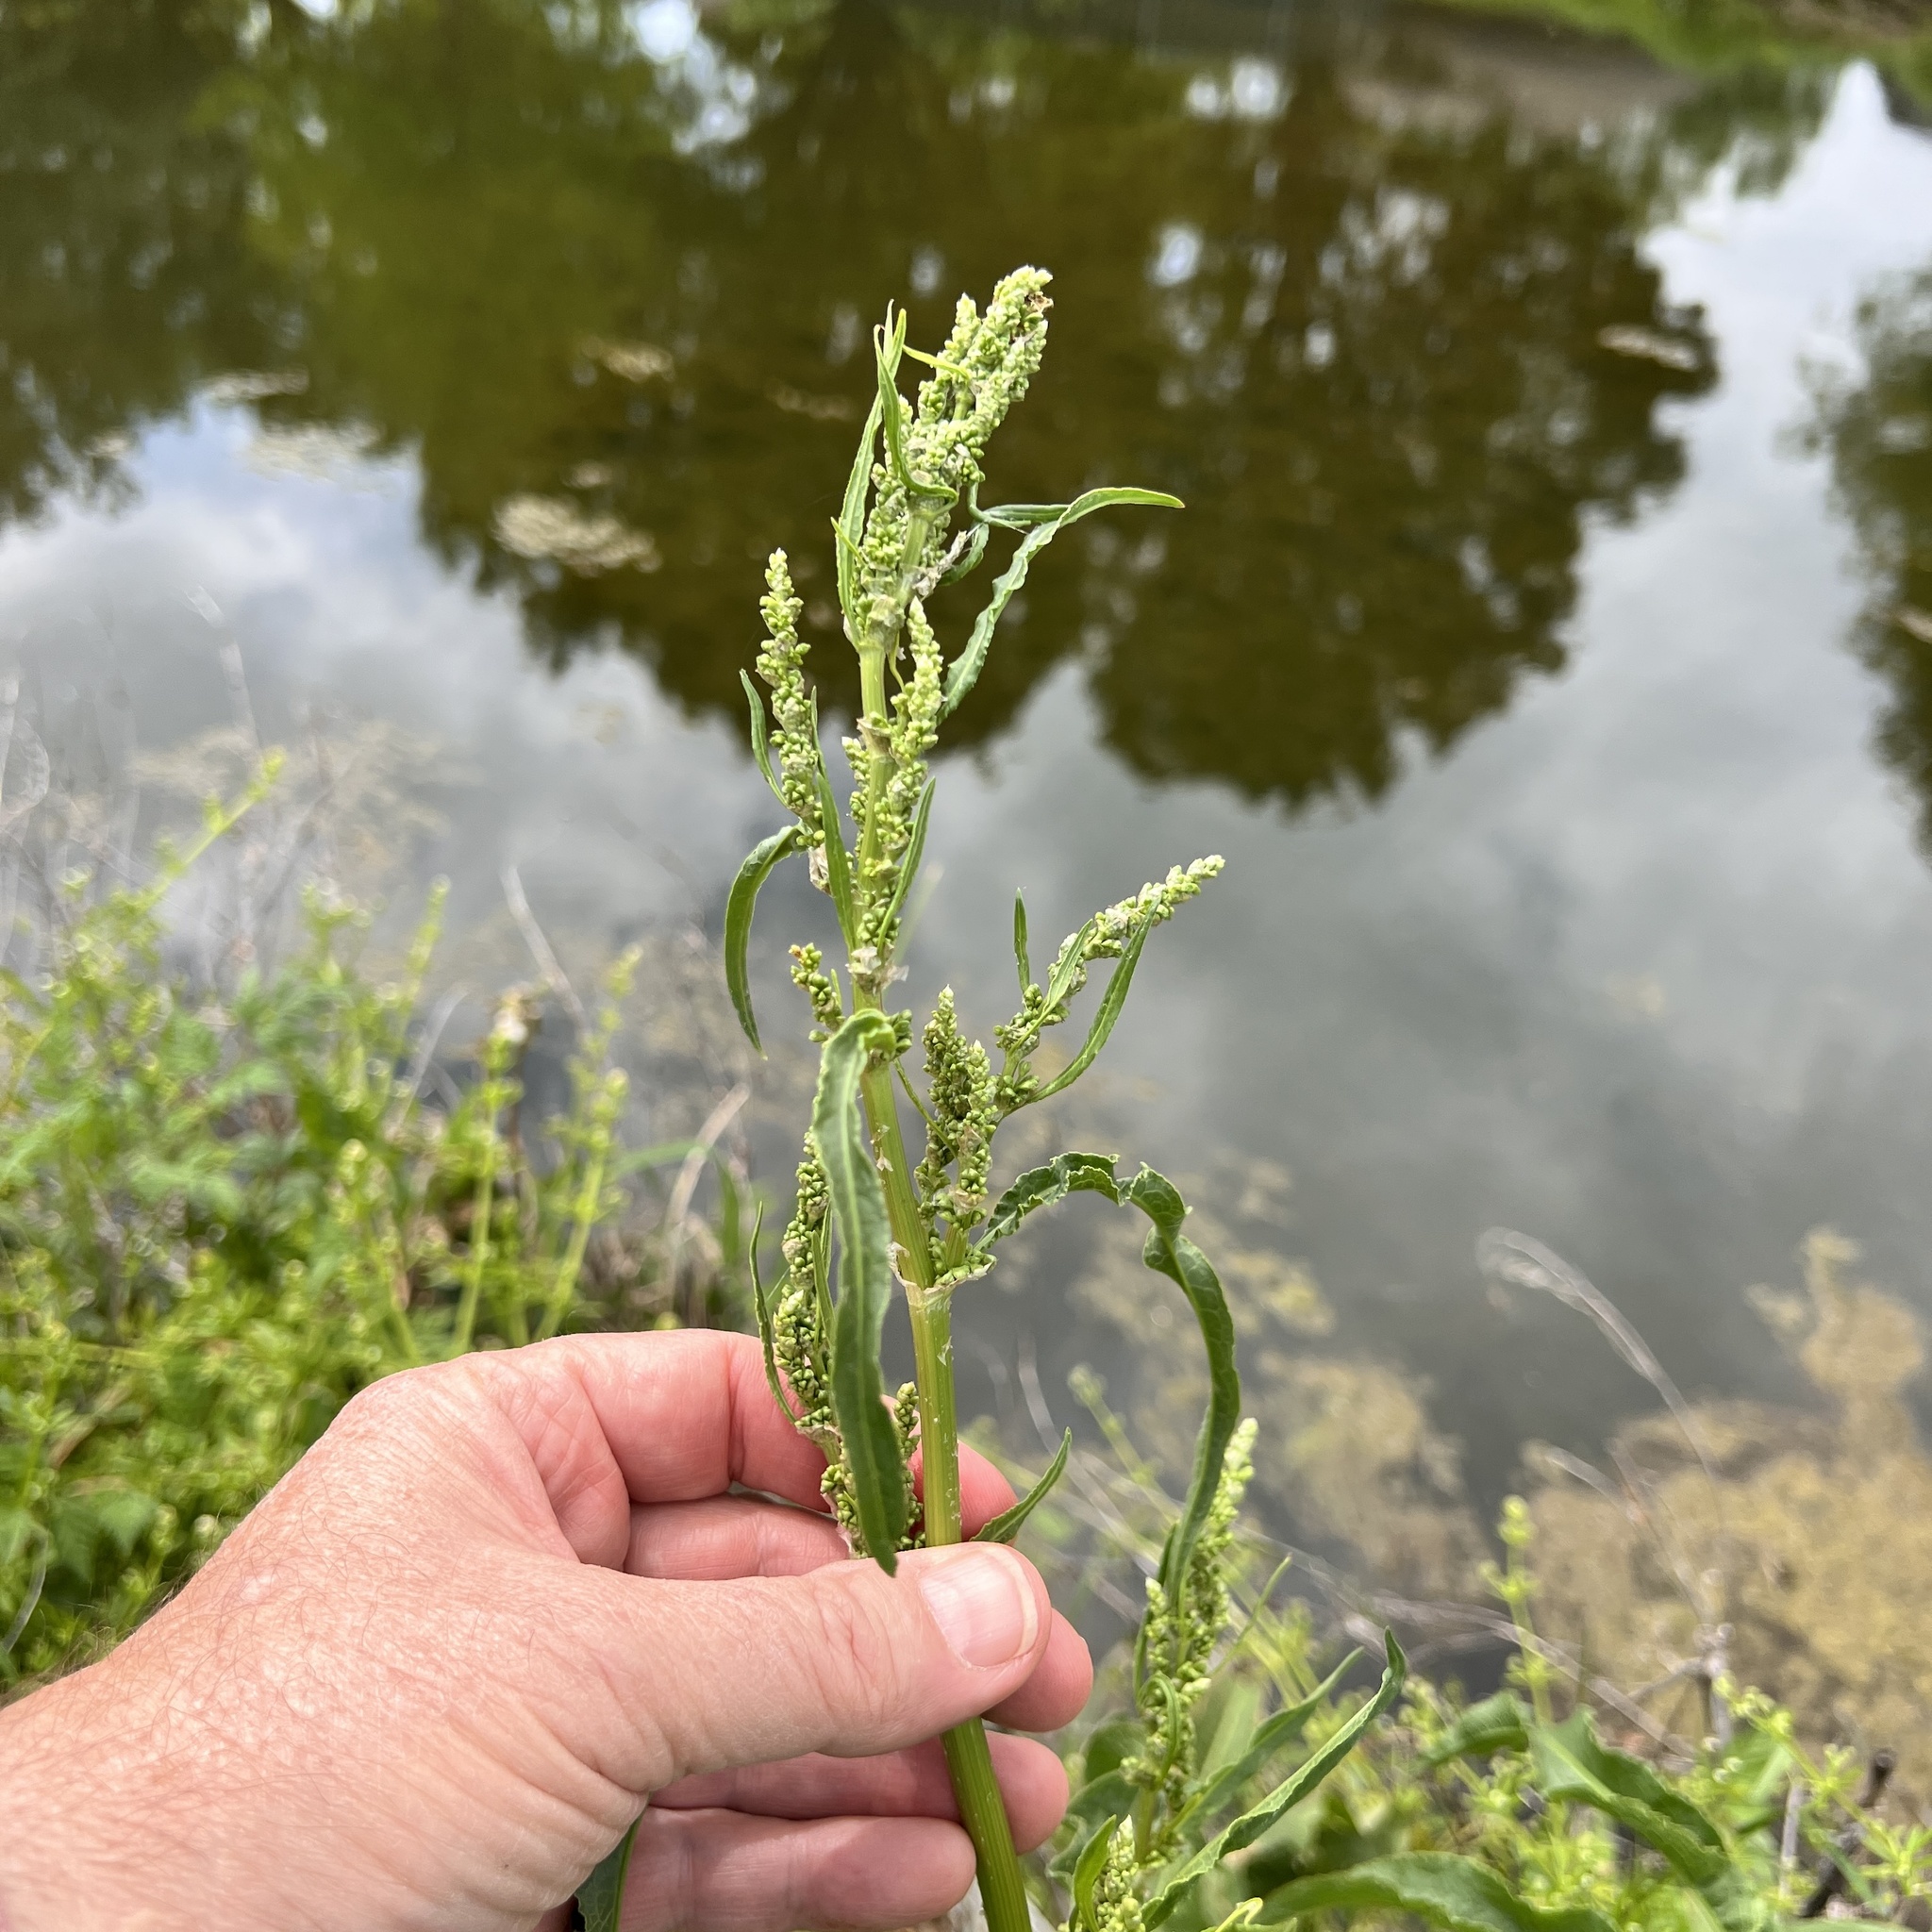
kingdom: Plantae
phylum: Tracheophyta
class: Magnoliopsida
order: Caryophyllales
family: Polygonaceae
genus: Rumex
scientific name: Rumex altissimus
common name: Smooth dock
